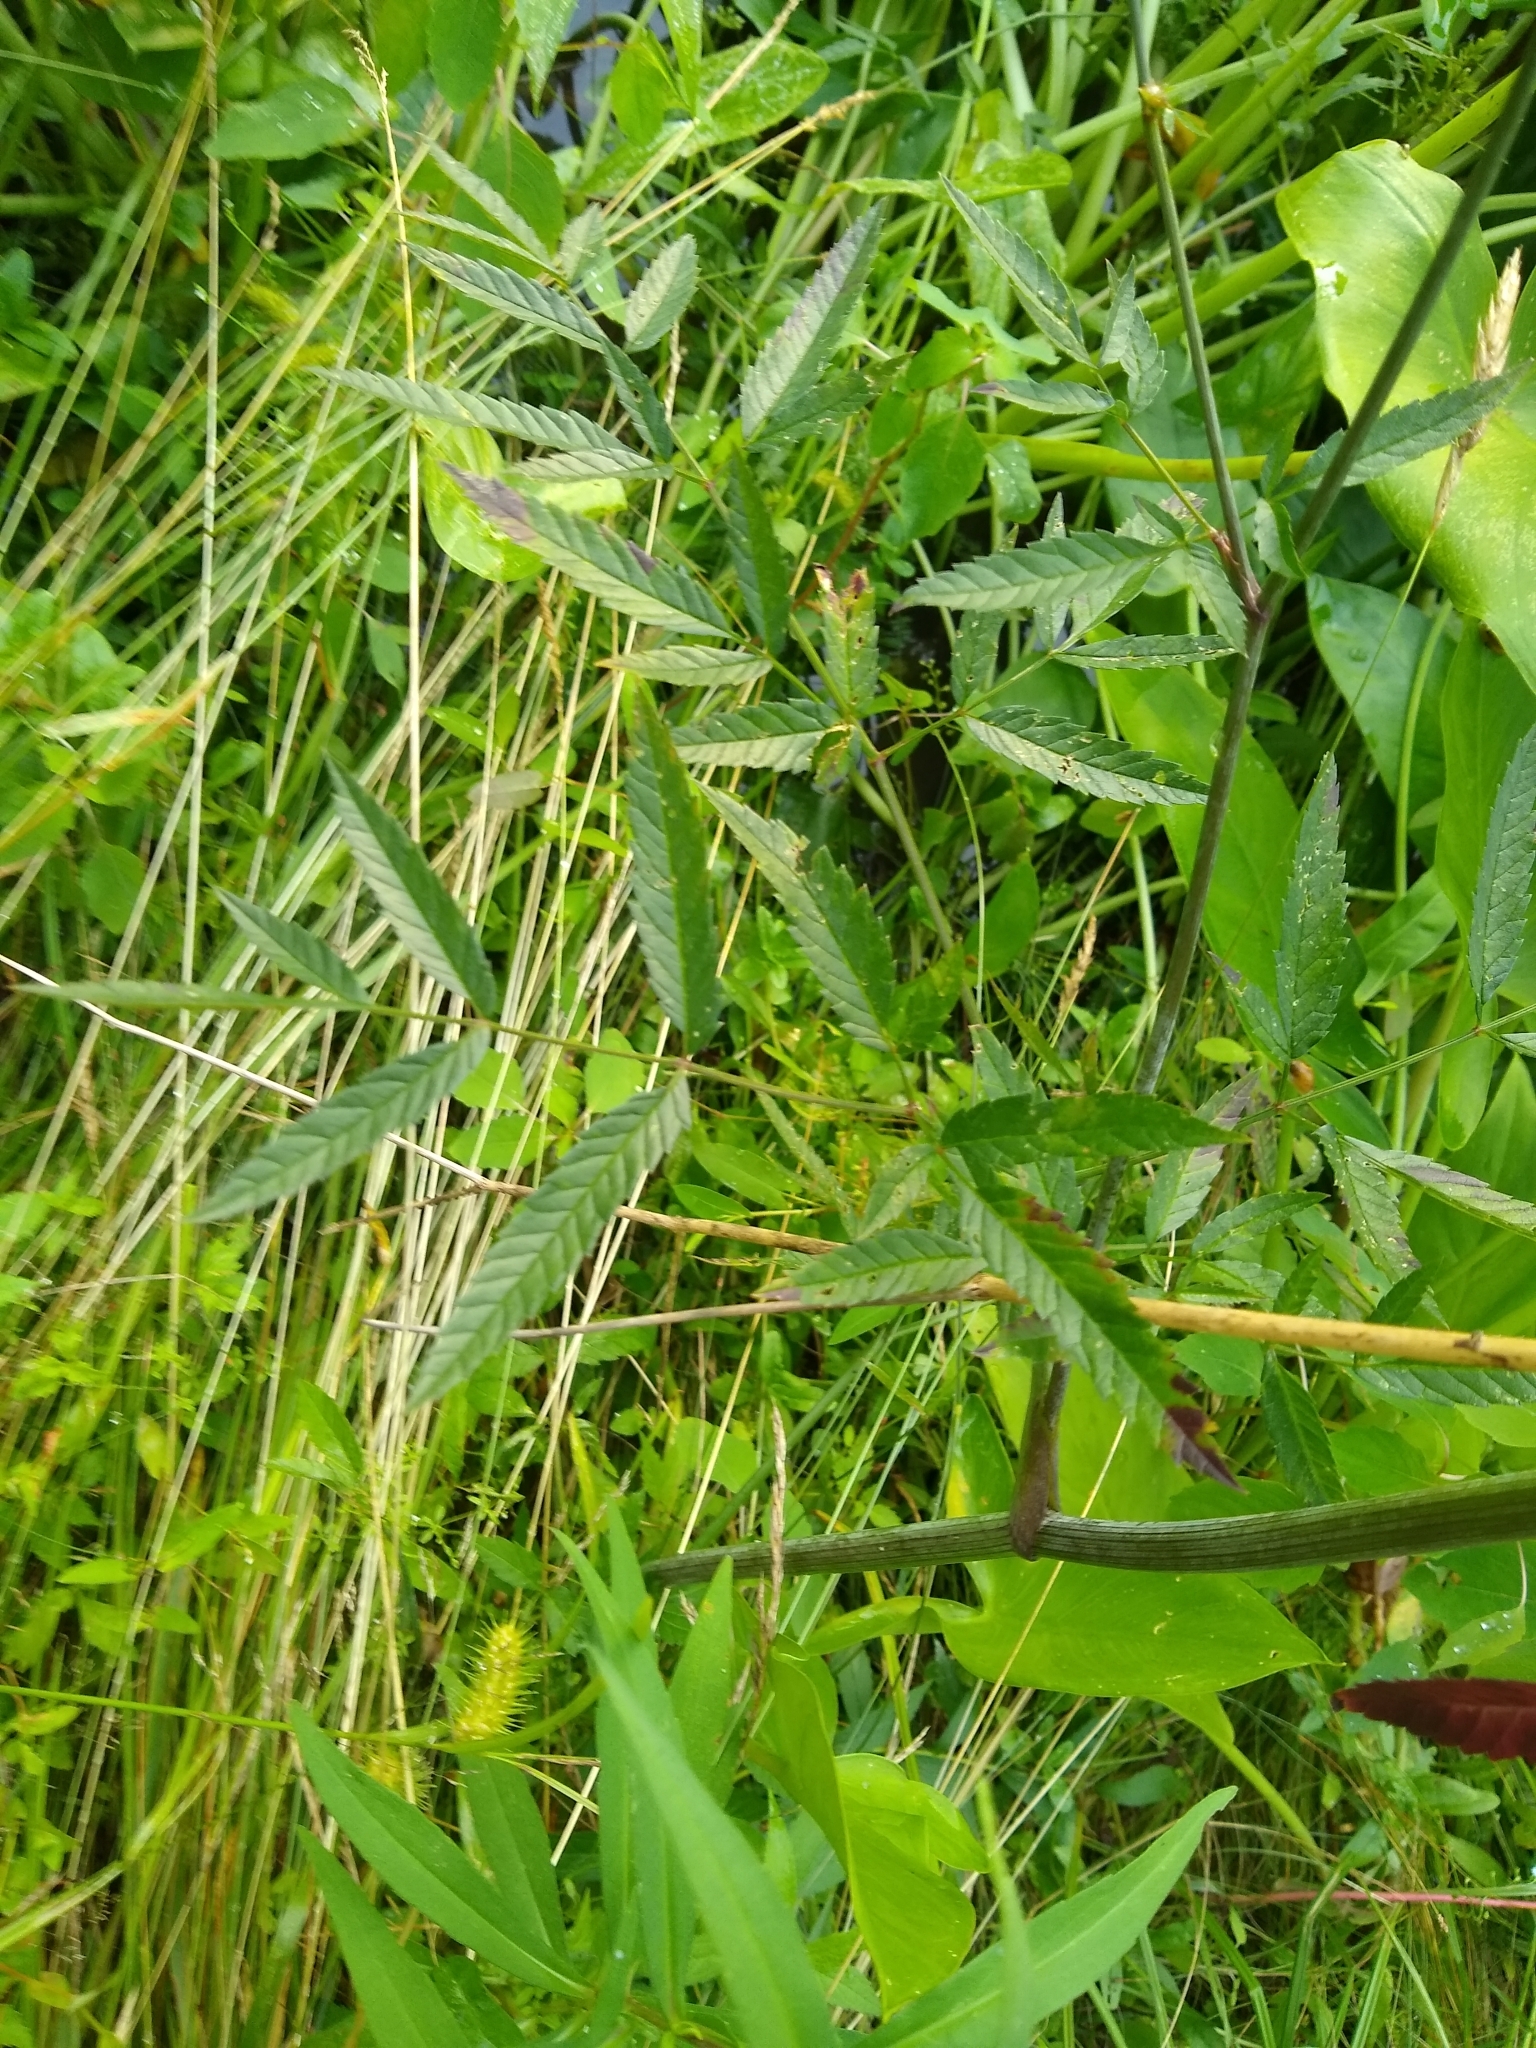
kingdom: Plantae
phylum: Tracheophyta
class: Magnoliopsida
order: Apiales
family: Apiaceae
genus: Cicuta
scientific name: Cicuta maculata
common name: Spotted cowbane
